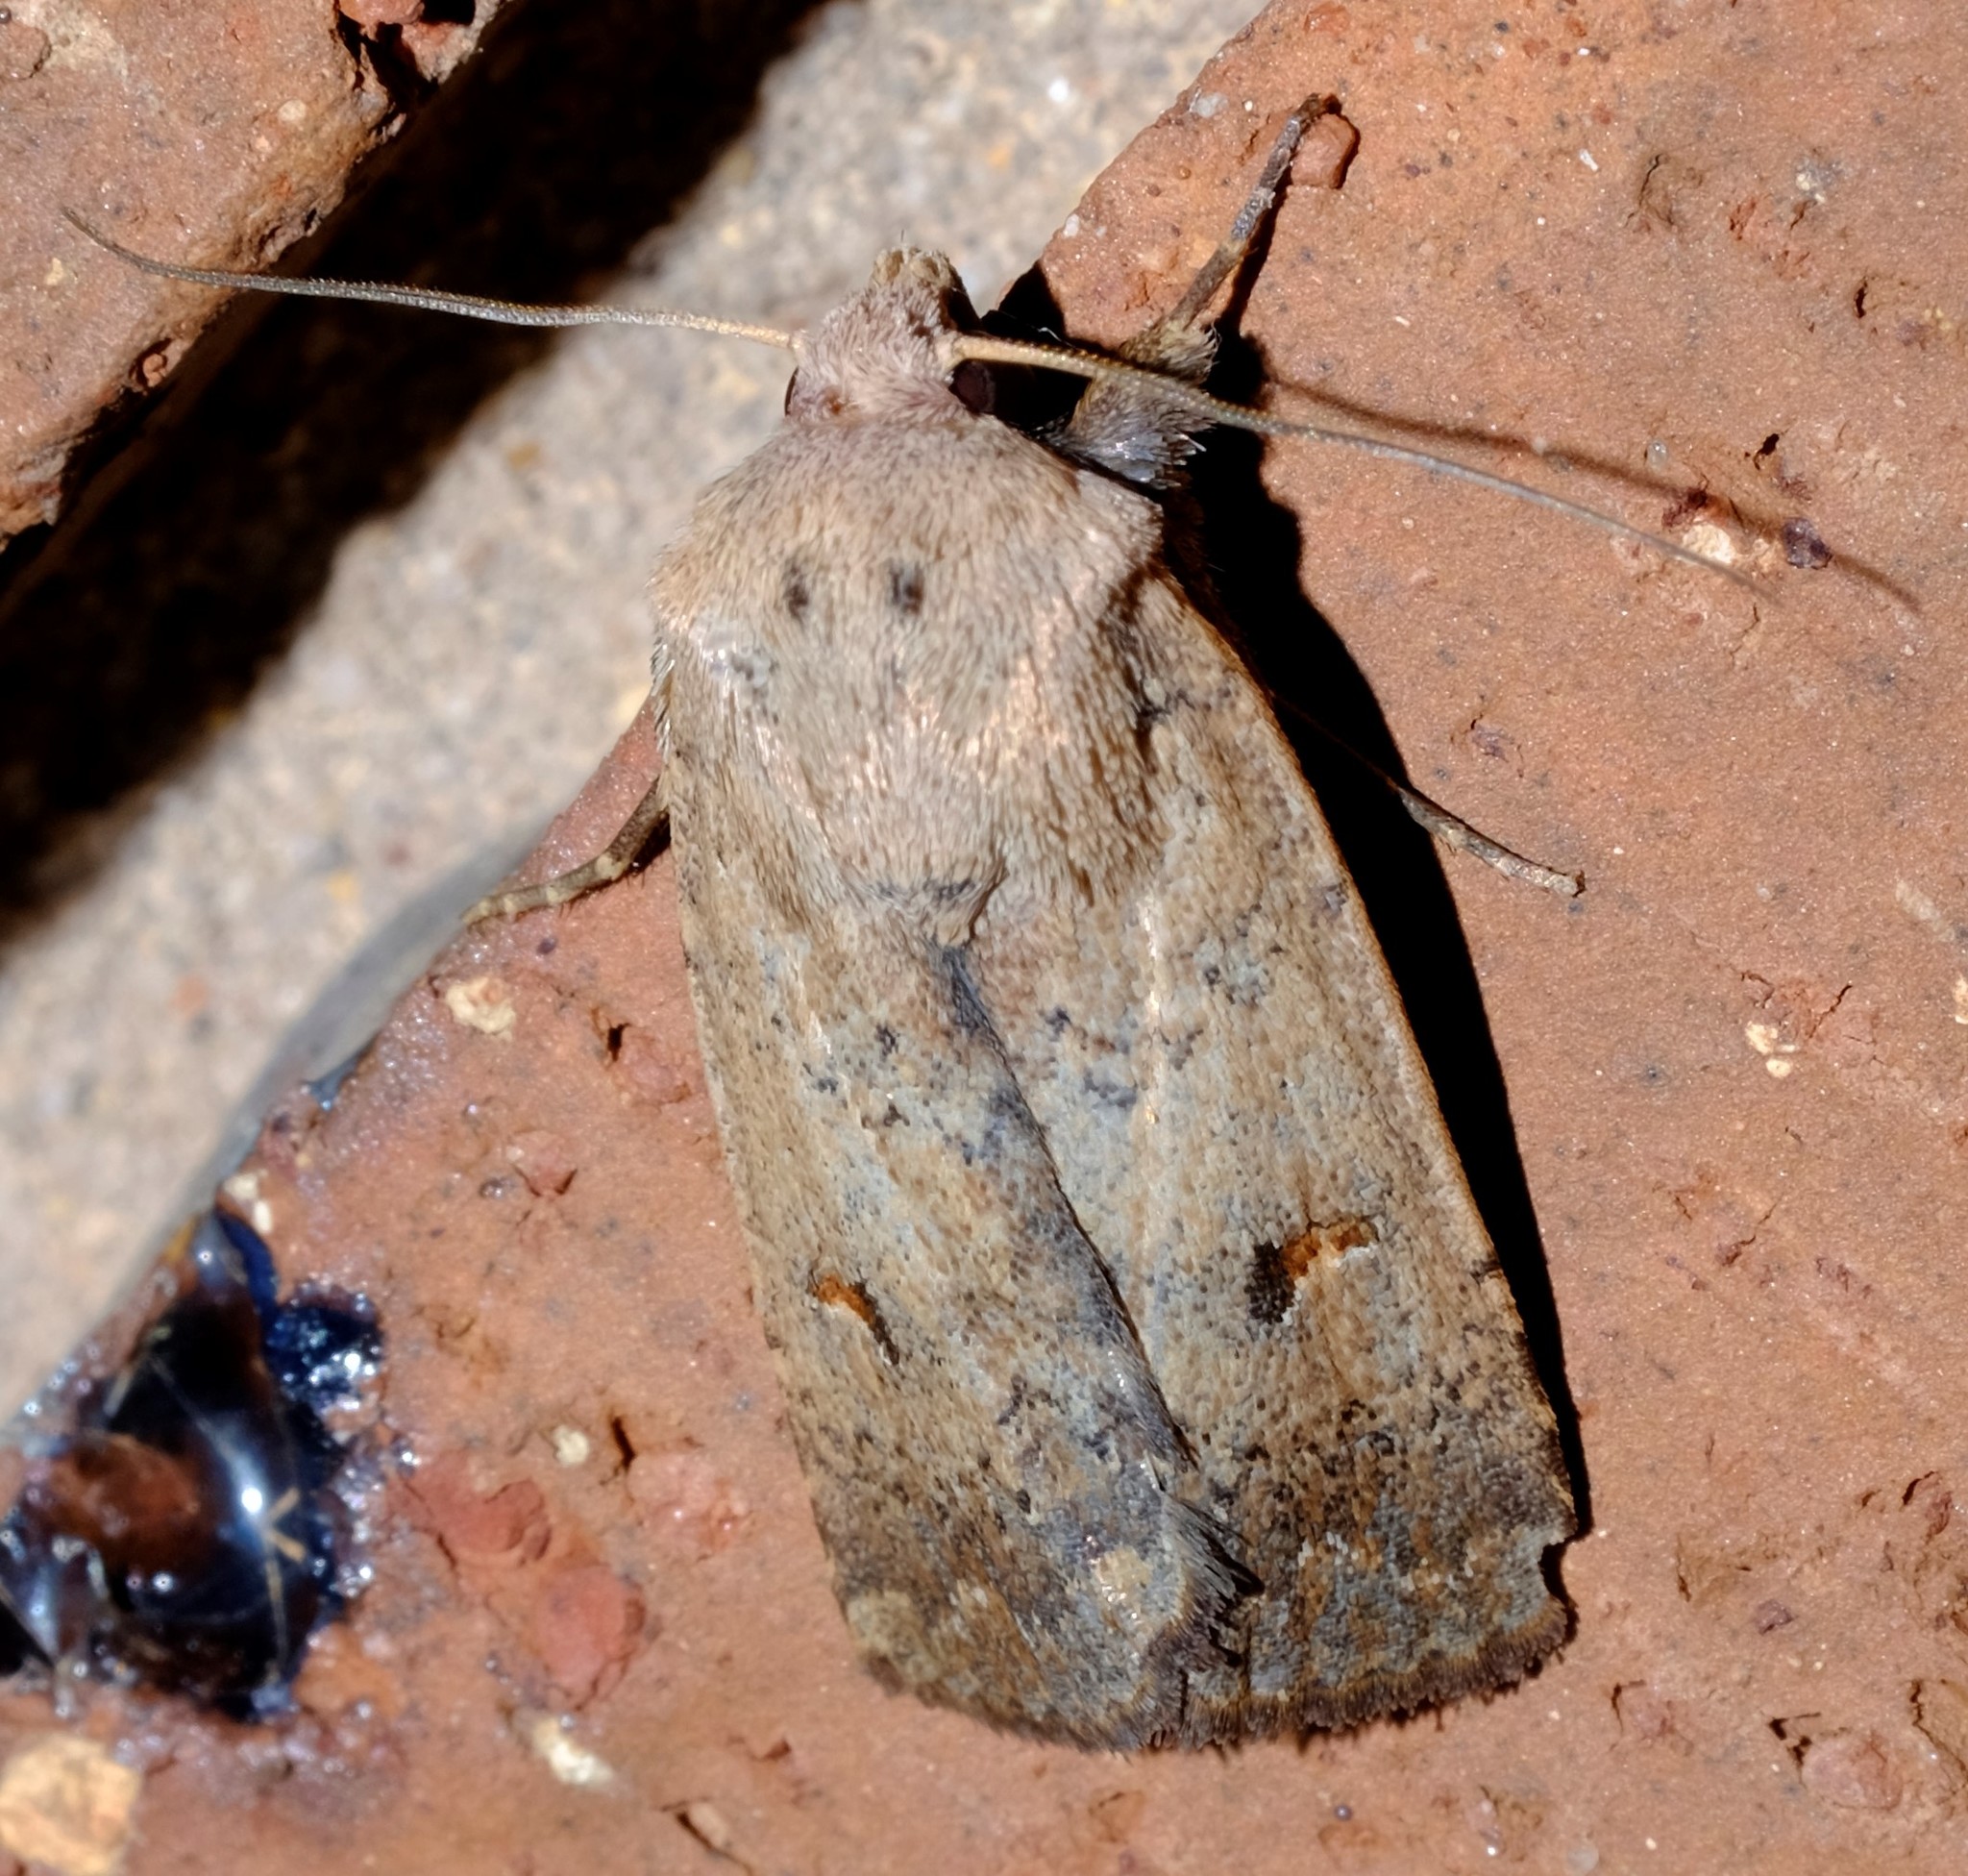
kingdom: Animalia
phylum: Arthropoda
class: Insecta
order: Lepidoptera
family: Noctuidae
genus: Proteuxoa
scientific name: Proteuxoa hypochalchis
